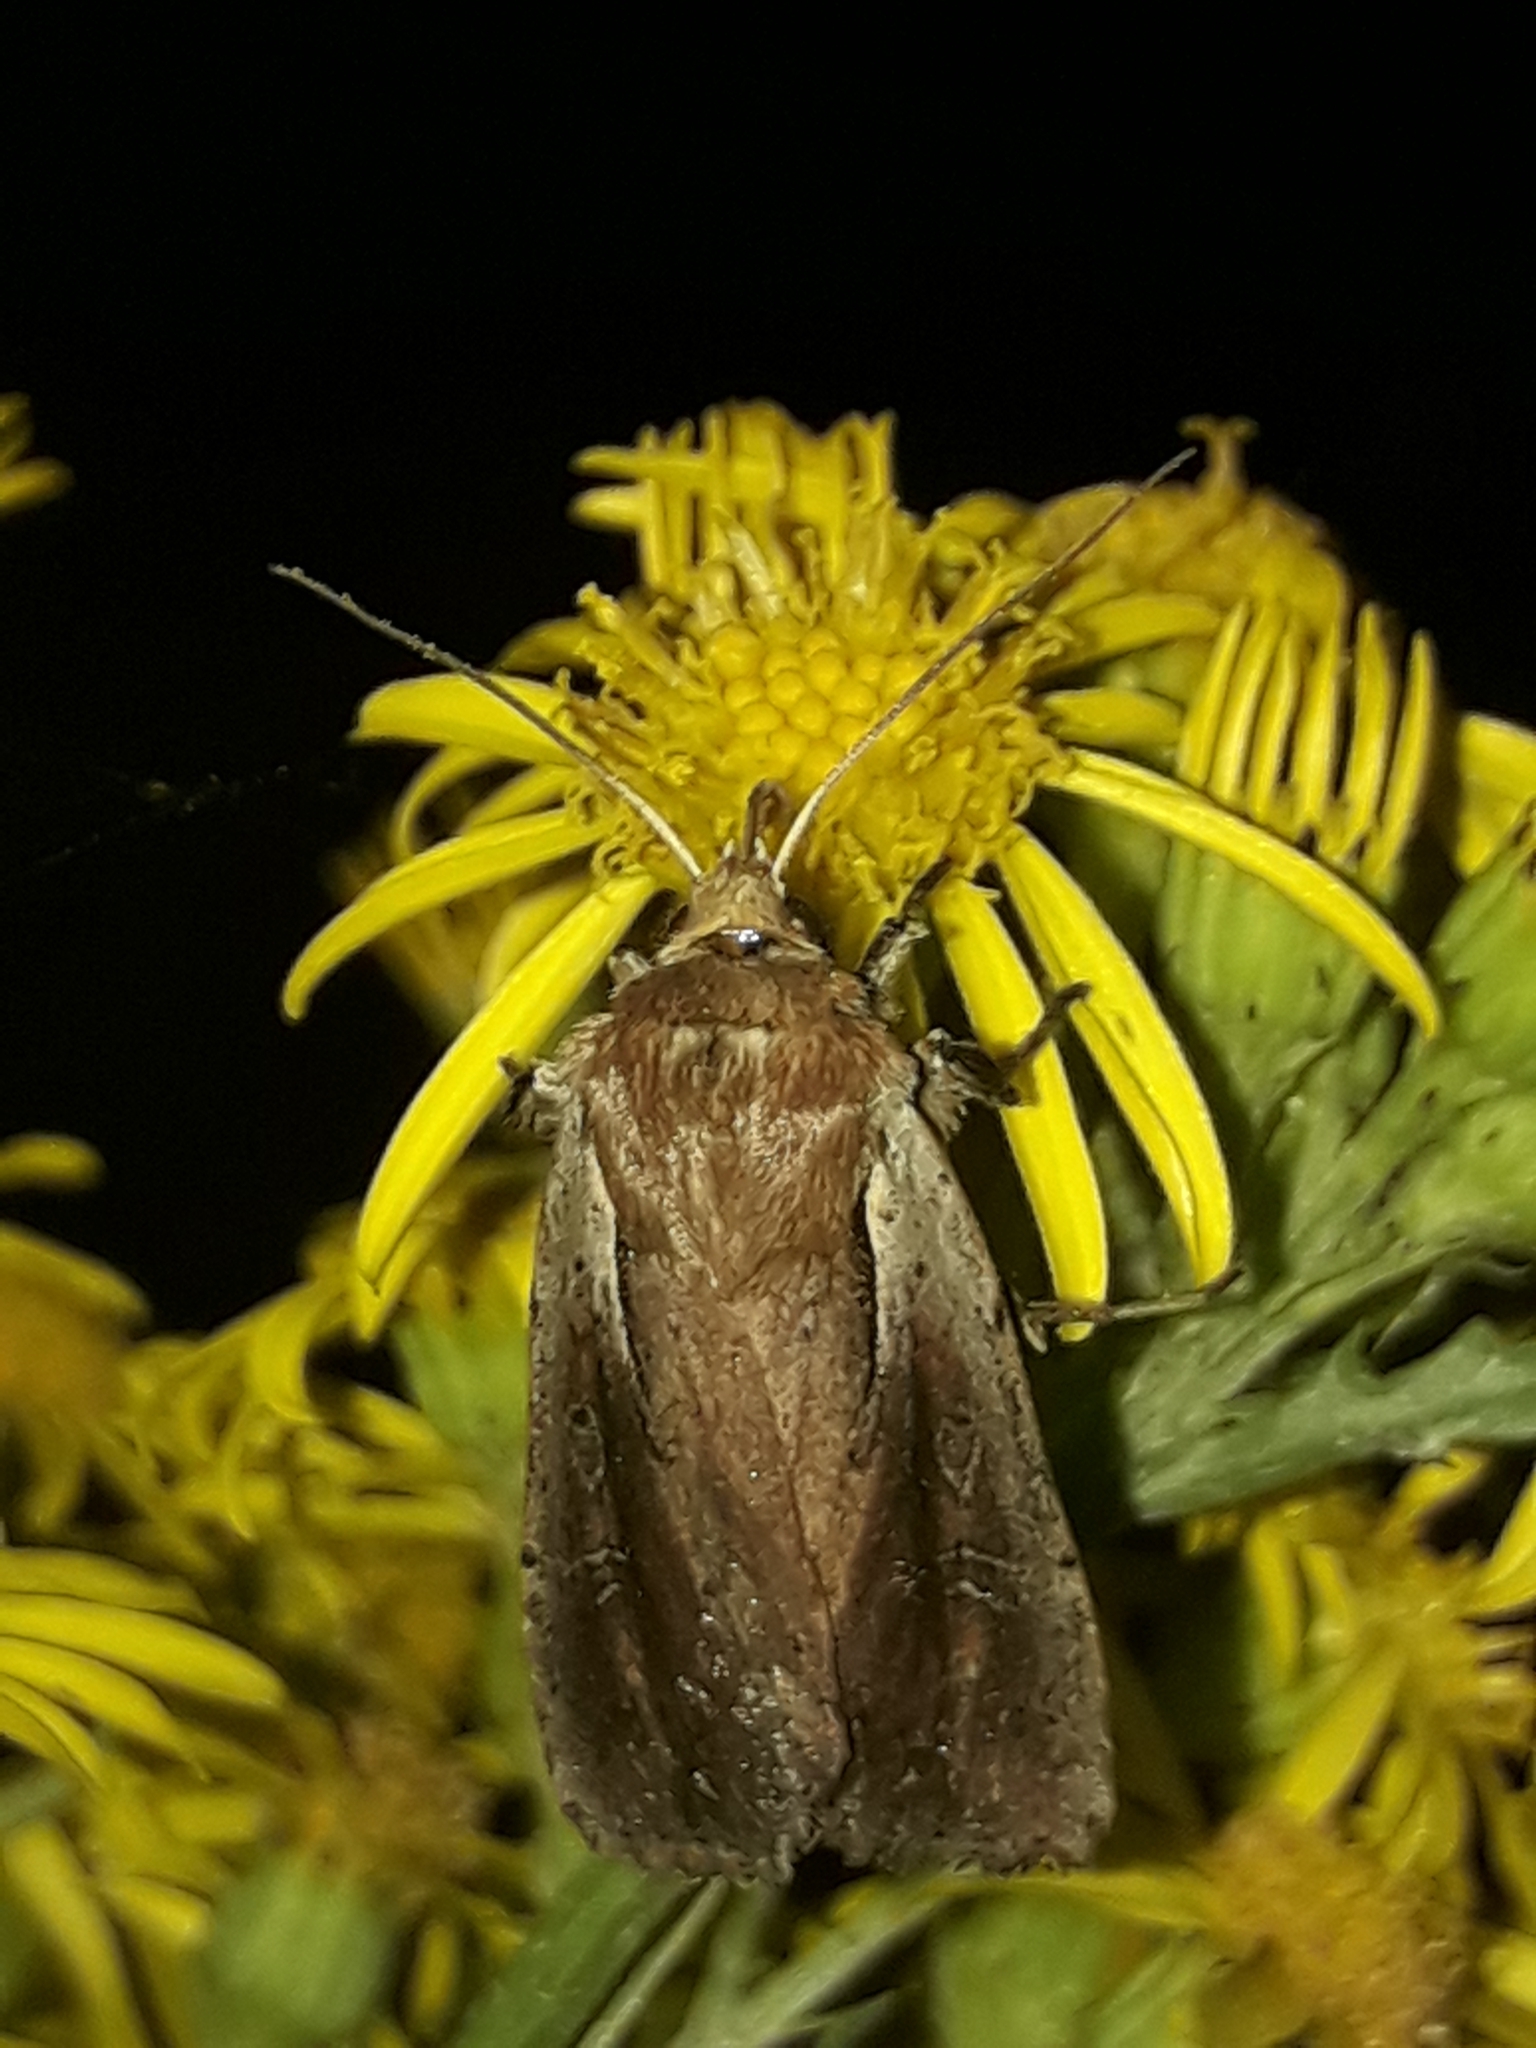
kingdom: Animalia
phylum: Arthropoda
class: Insecta
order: Lepidoptera
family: Noctuidae
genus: Ichneutica
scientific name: Ichneutica atristriga
